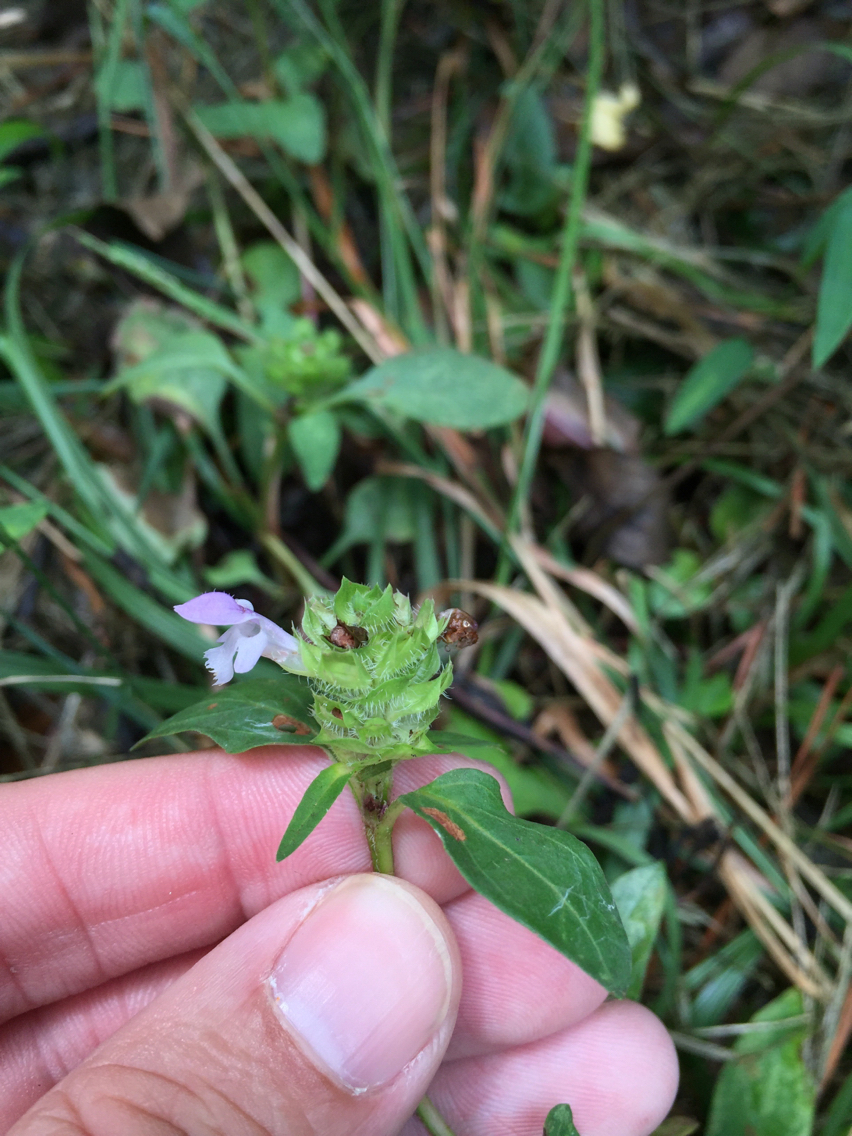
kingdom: Plantae
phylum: Tracheophyta
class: Magnoliopsida
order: Lamiales
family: Lamiaceae
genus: Prunella
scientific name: Prunella vulgaris
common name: Heal-all
